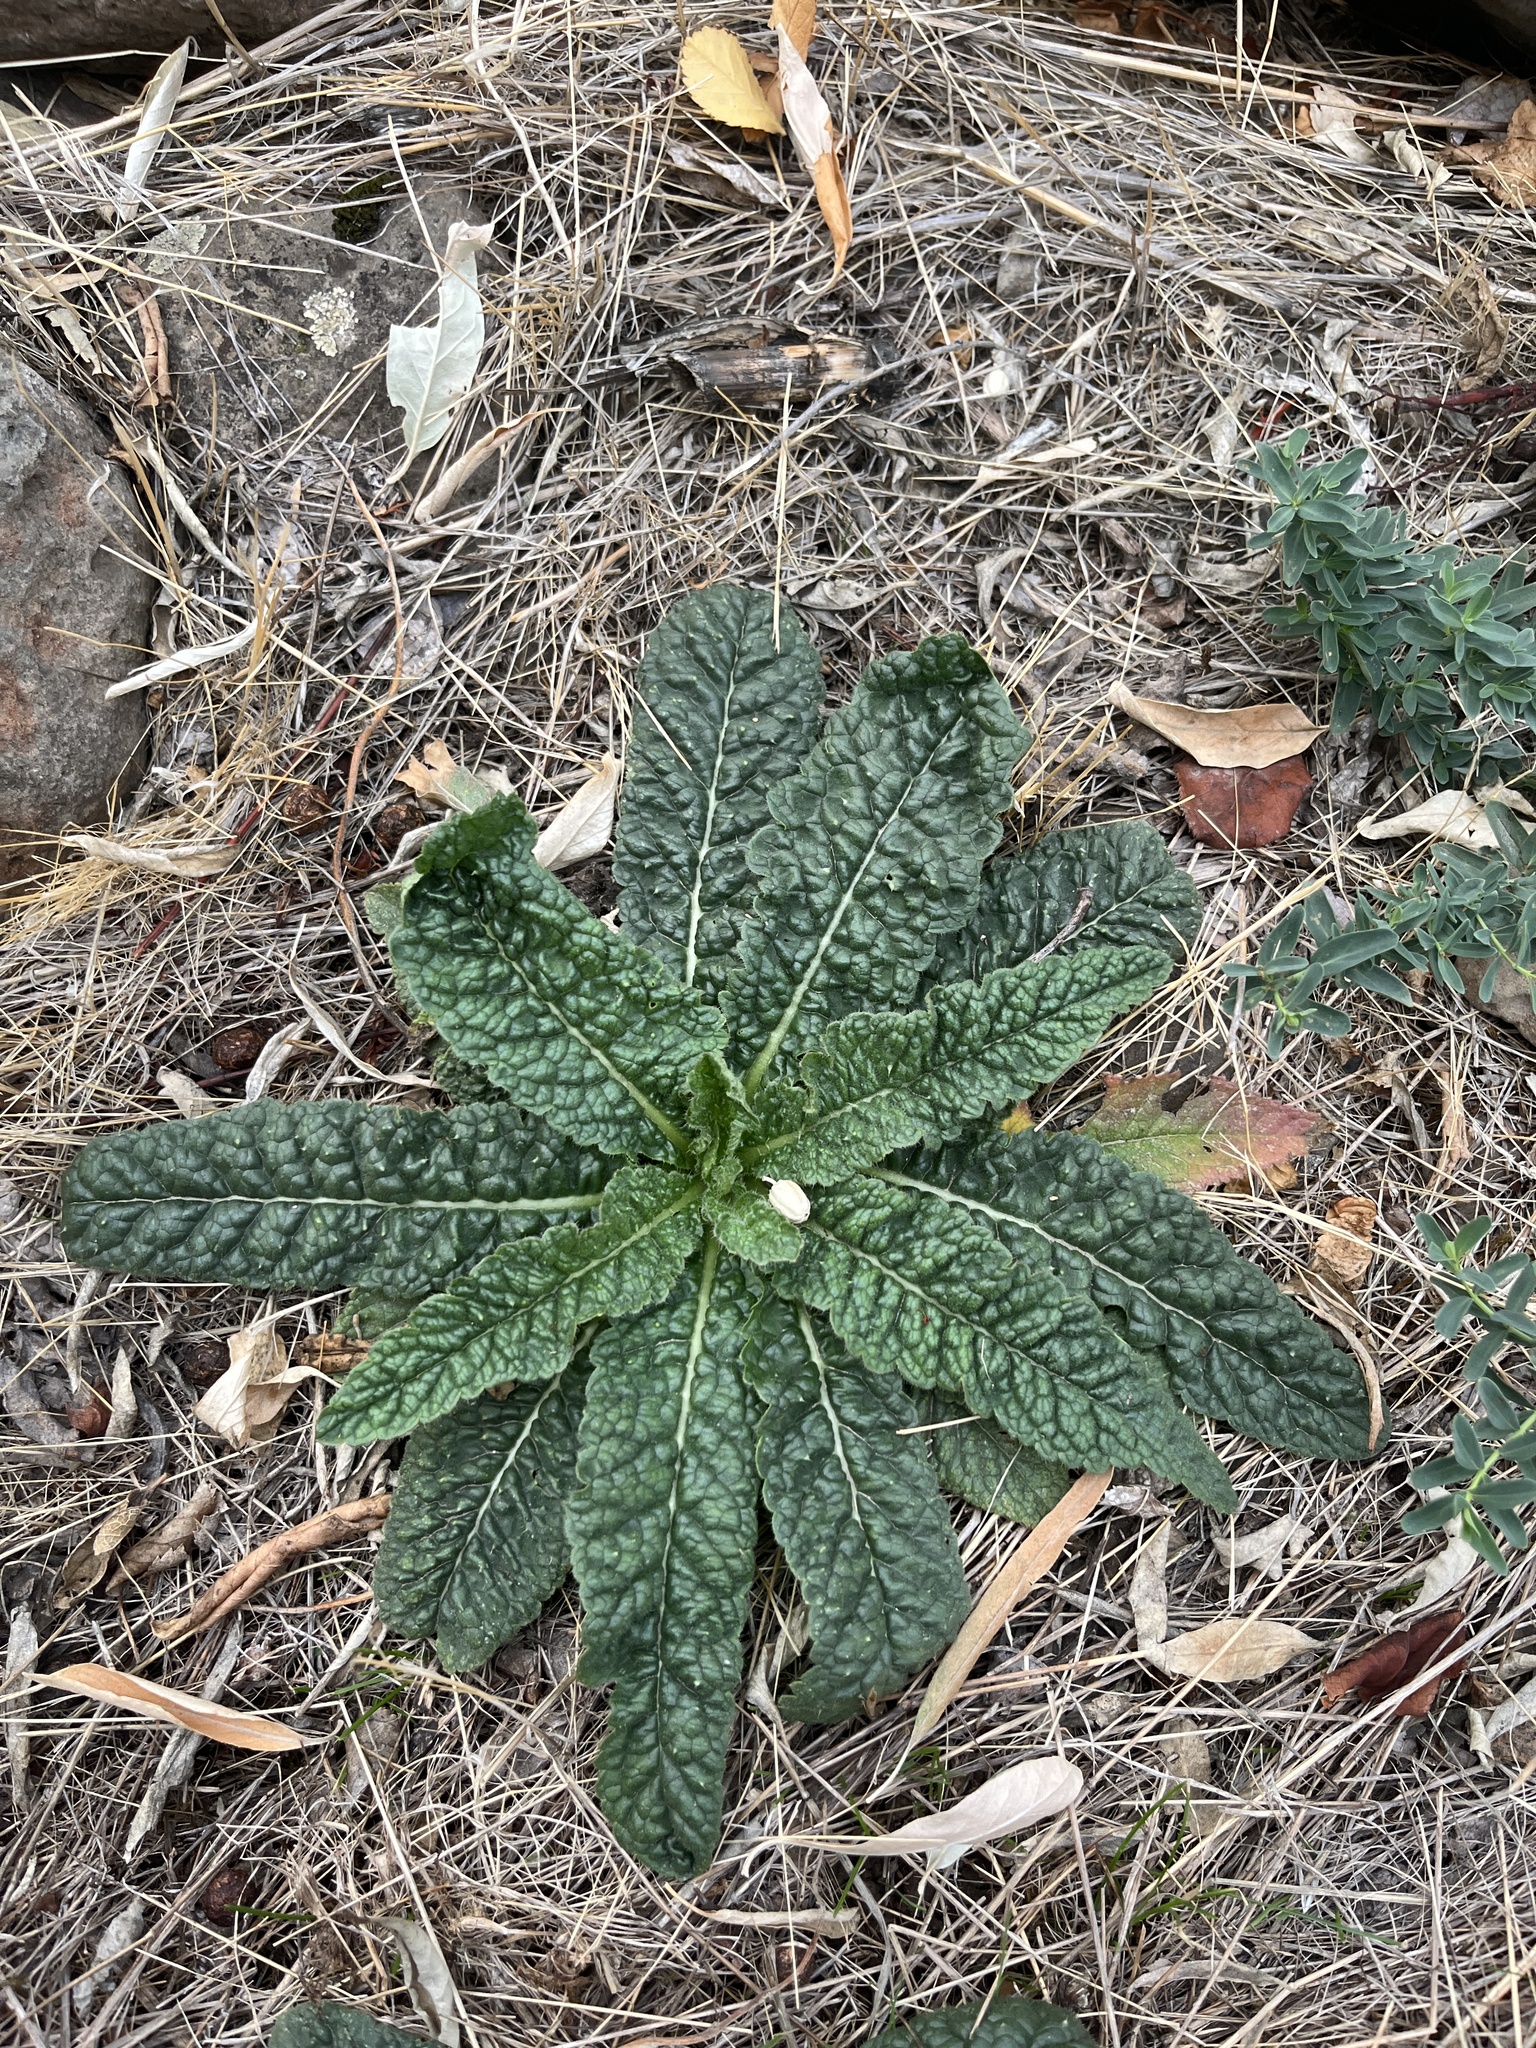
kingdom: Plantae
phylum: Tracheophyta
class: Magnoliopsida
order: Dipsacales
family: Caprifoliaceae
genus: Dipsacus
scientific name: Dipsacus fullonum
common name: Teasel
